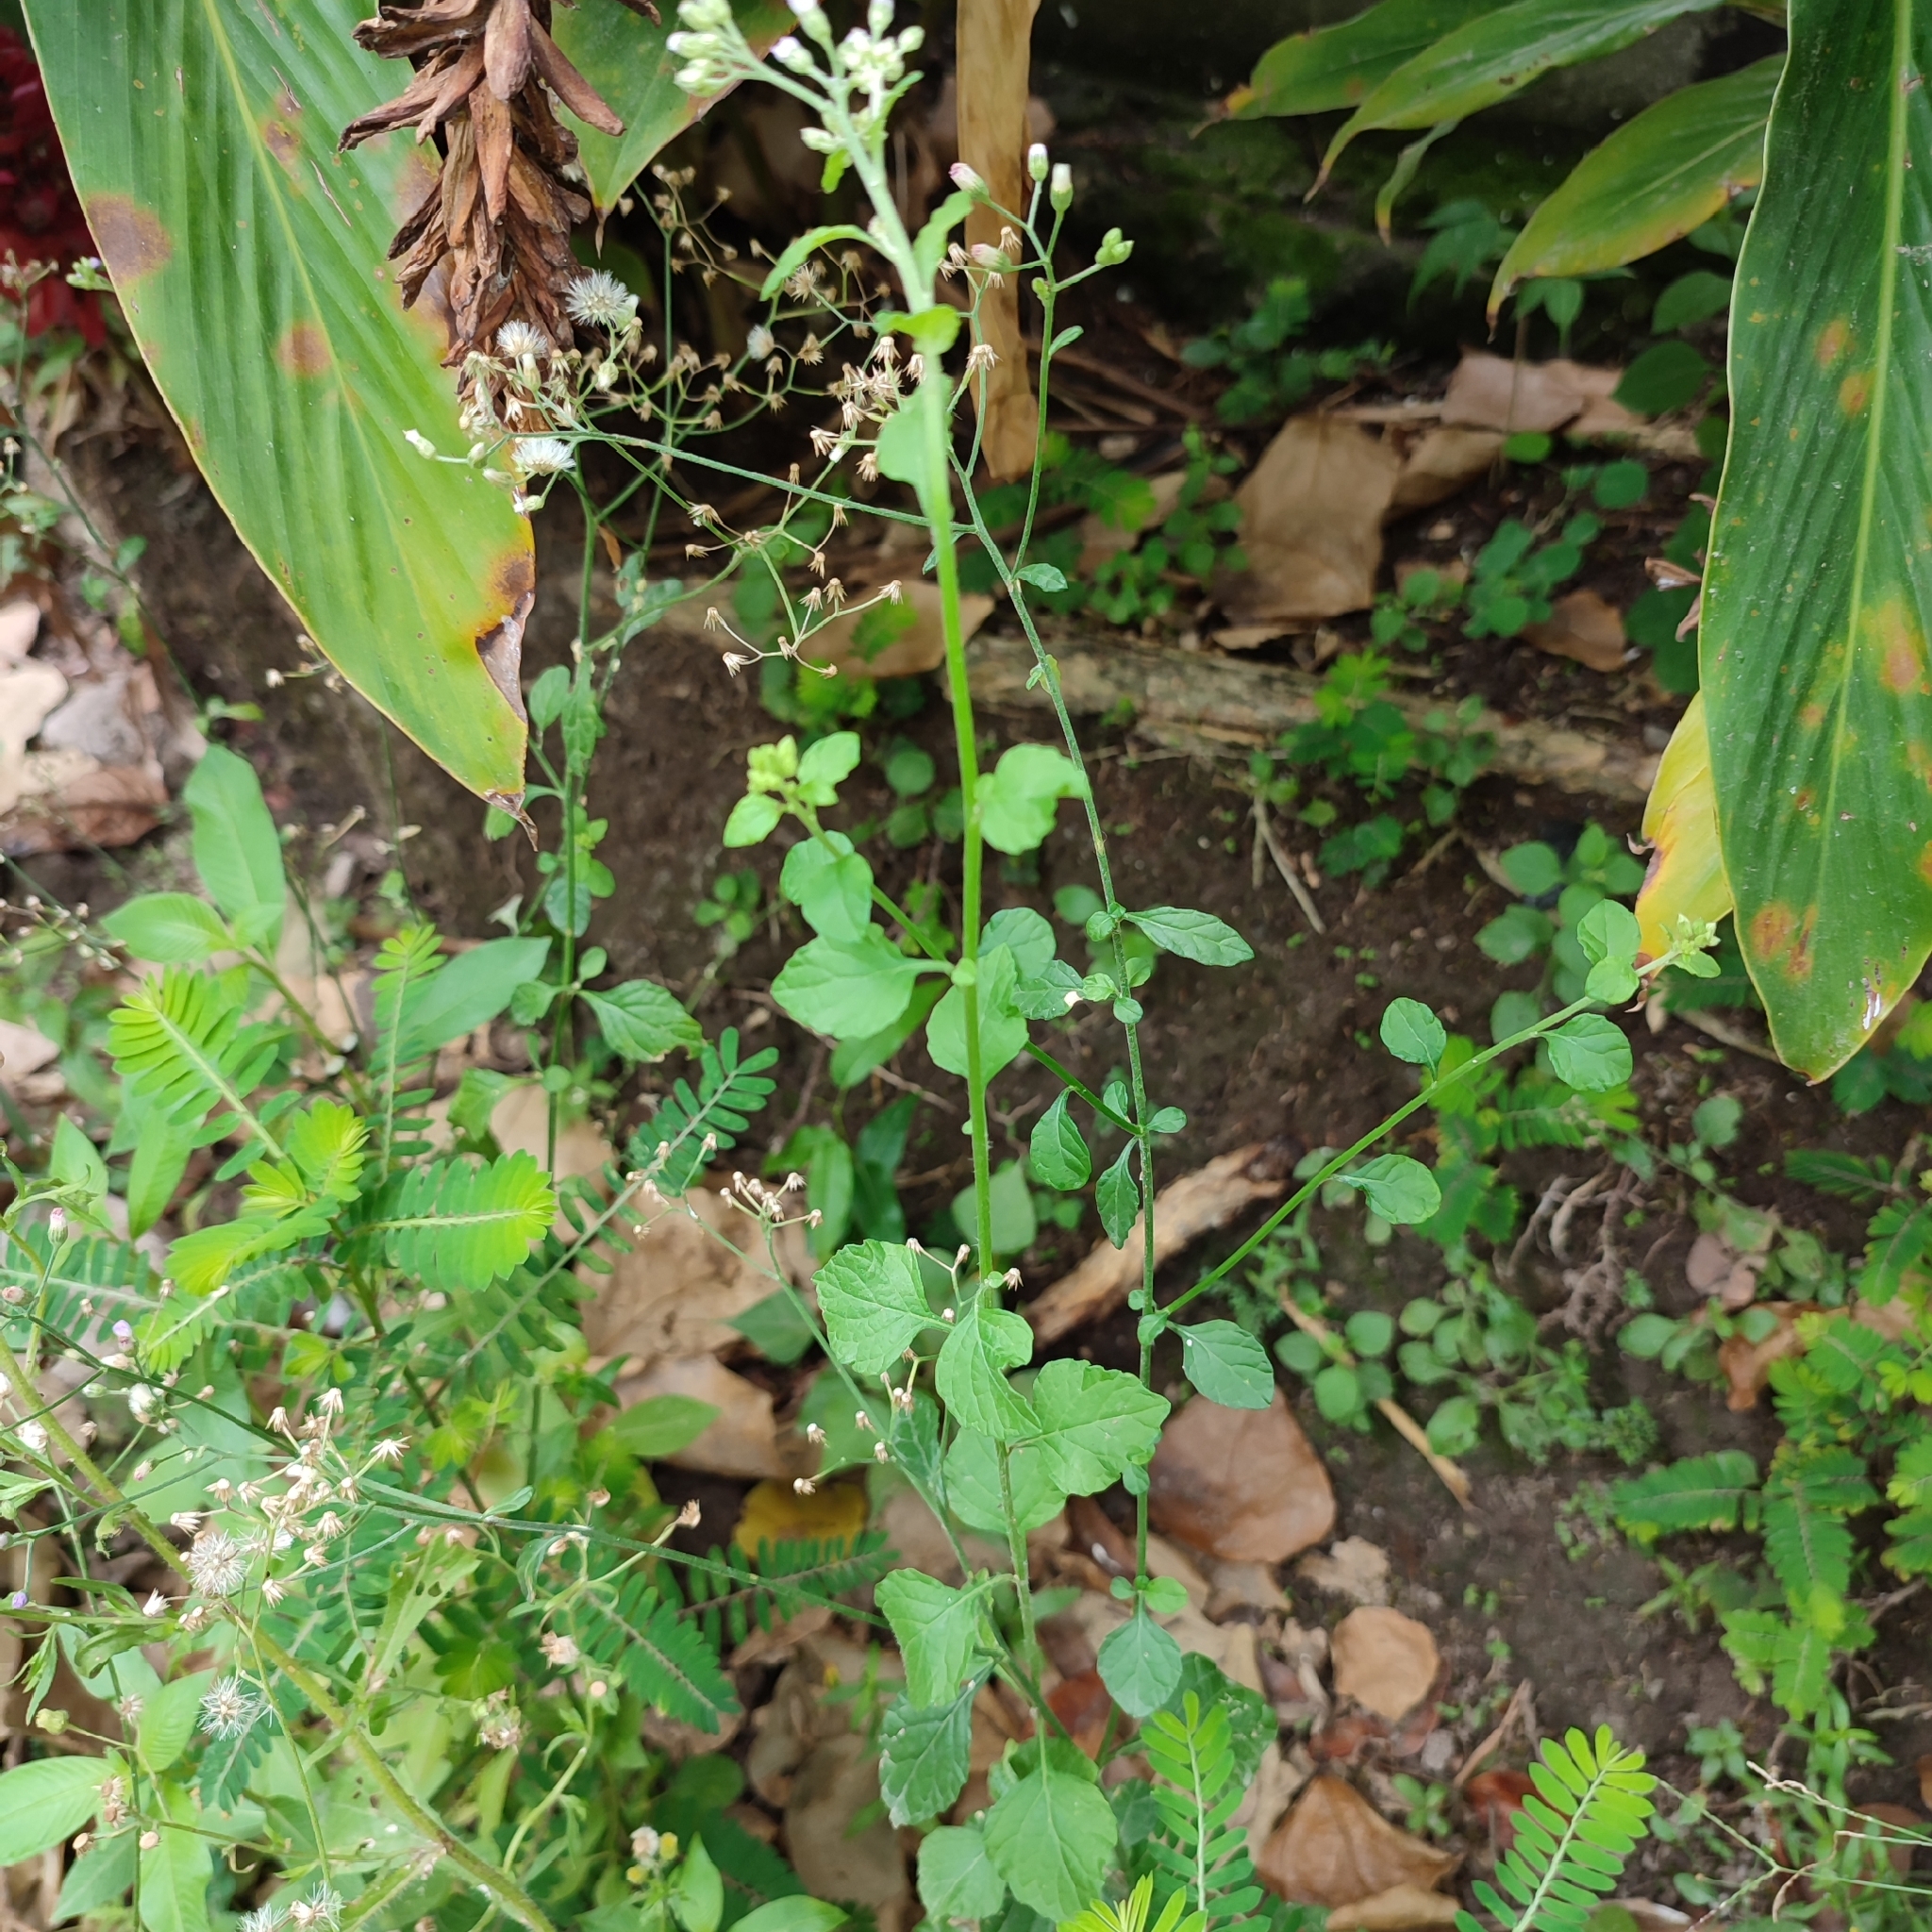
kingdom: Plantae
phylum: Tracheophyta
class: Magnoliopsida
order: Asterales
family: Asteraceae
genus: Cyanthillium
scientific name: Cyanthillium cinereum
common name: Little ironweed
